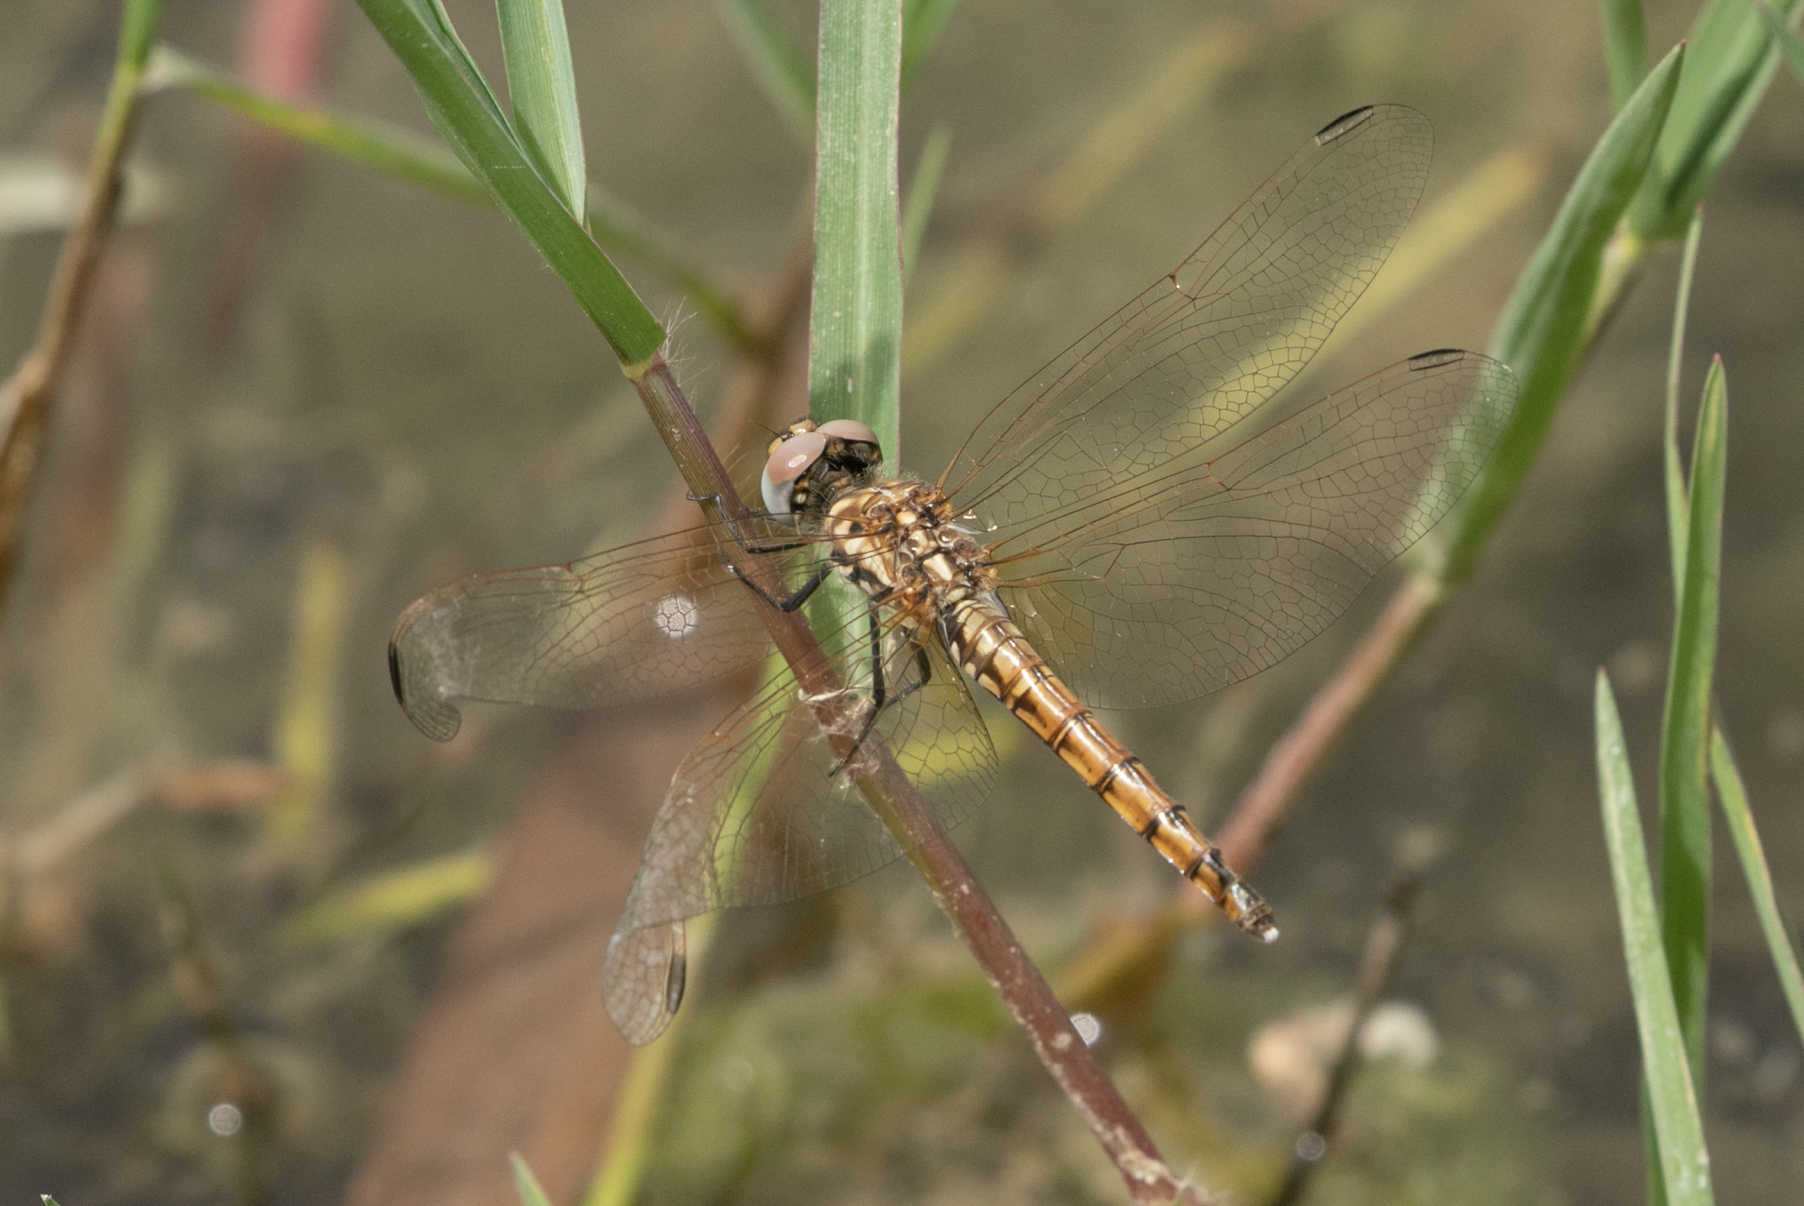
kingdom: Animalia
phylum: Arthropoda
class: Insecta
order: Odonata
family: Libellulidae
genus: Trithemis
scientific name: Trithemis annulata
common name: Violet dropwing
